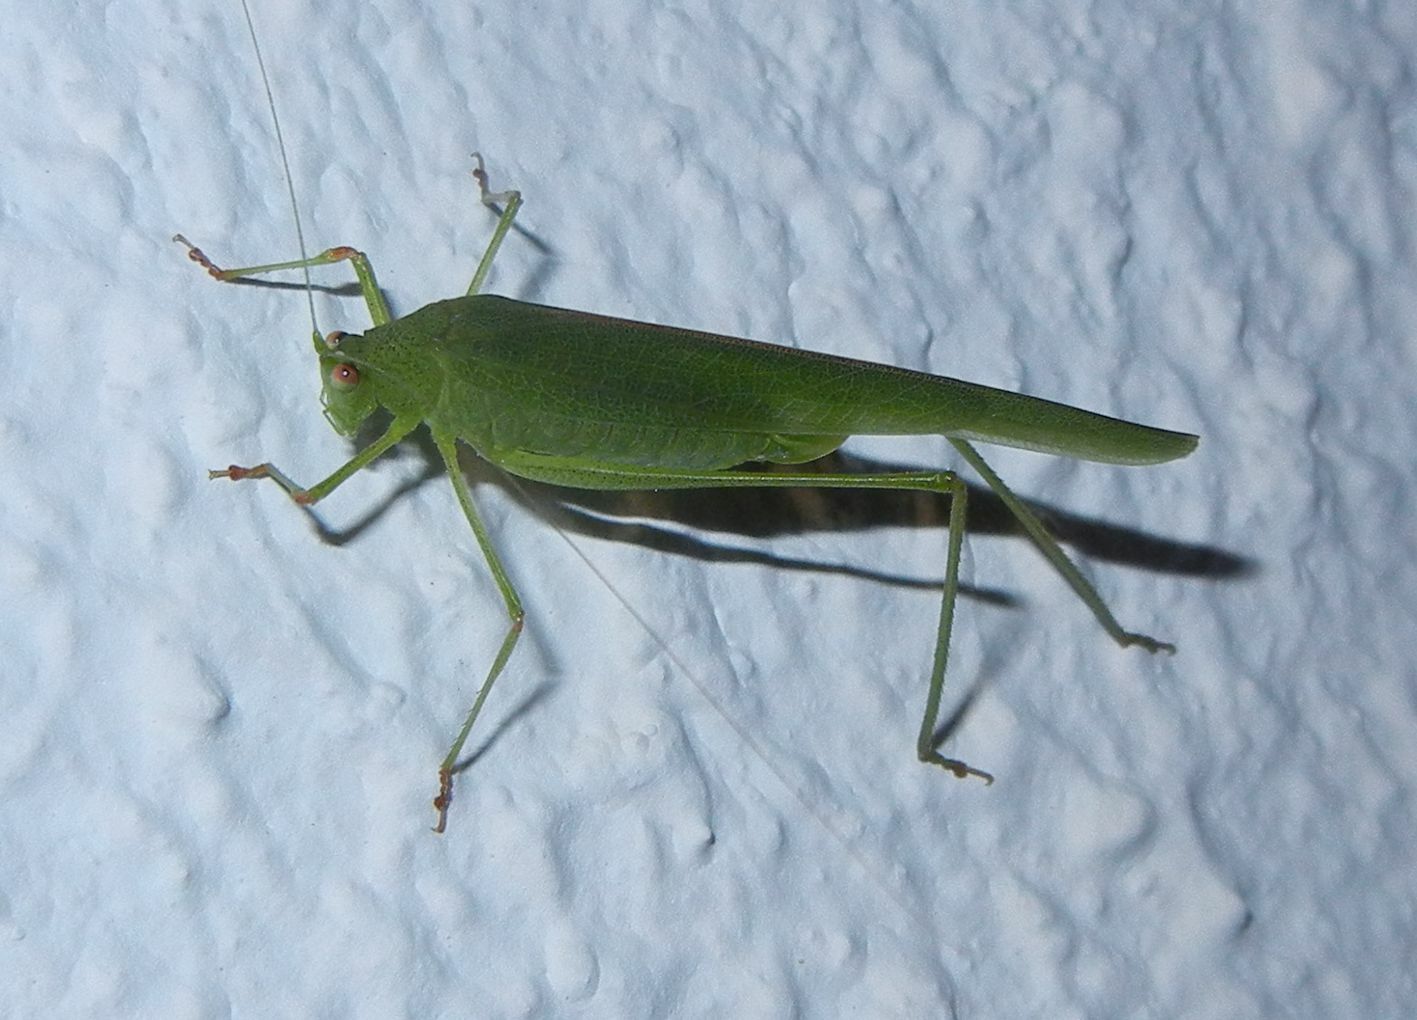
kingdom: Animalia
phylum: Arthropoda
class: Insecta
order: Orthoptera
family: Tettigoniidae
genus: Phaneroptera
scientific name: Phaneroptera nana
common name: Southern sickle bush-cricket
